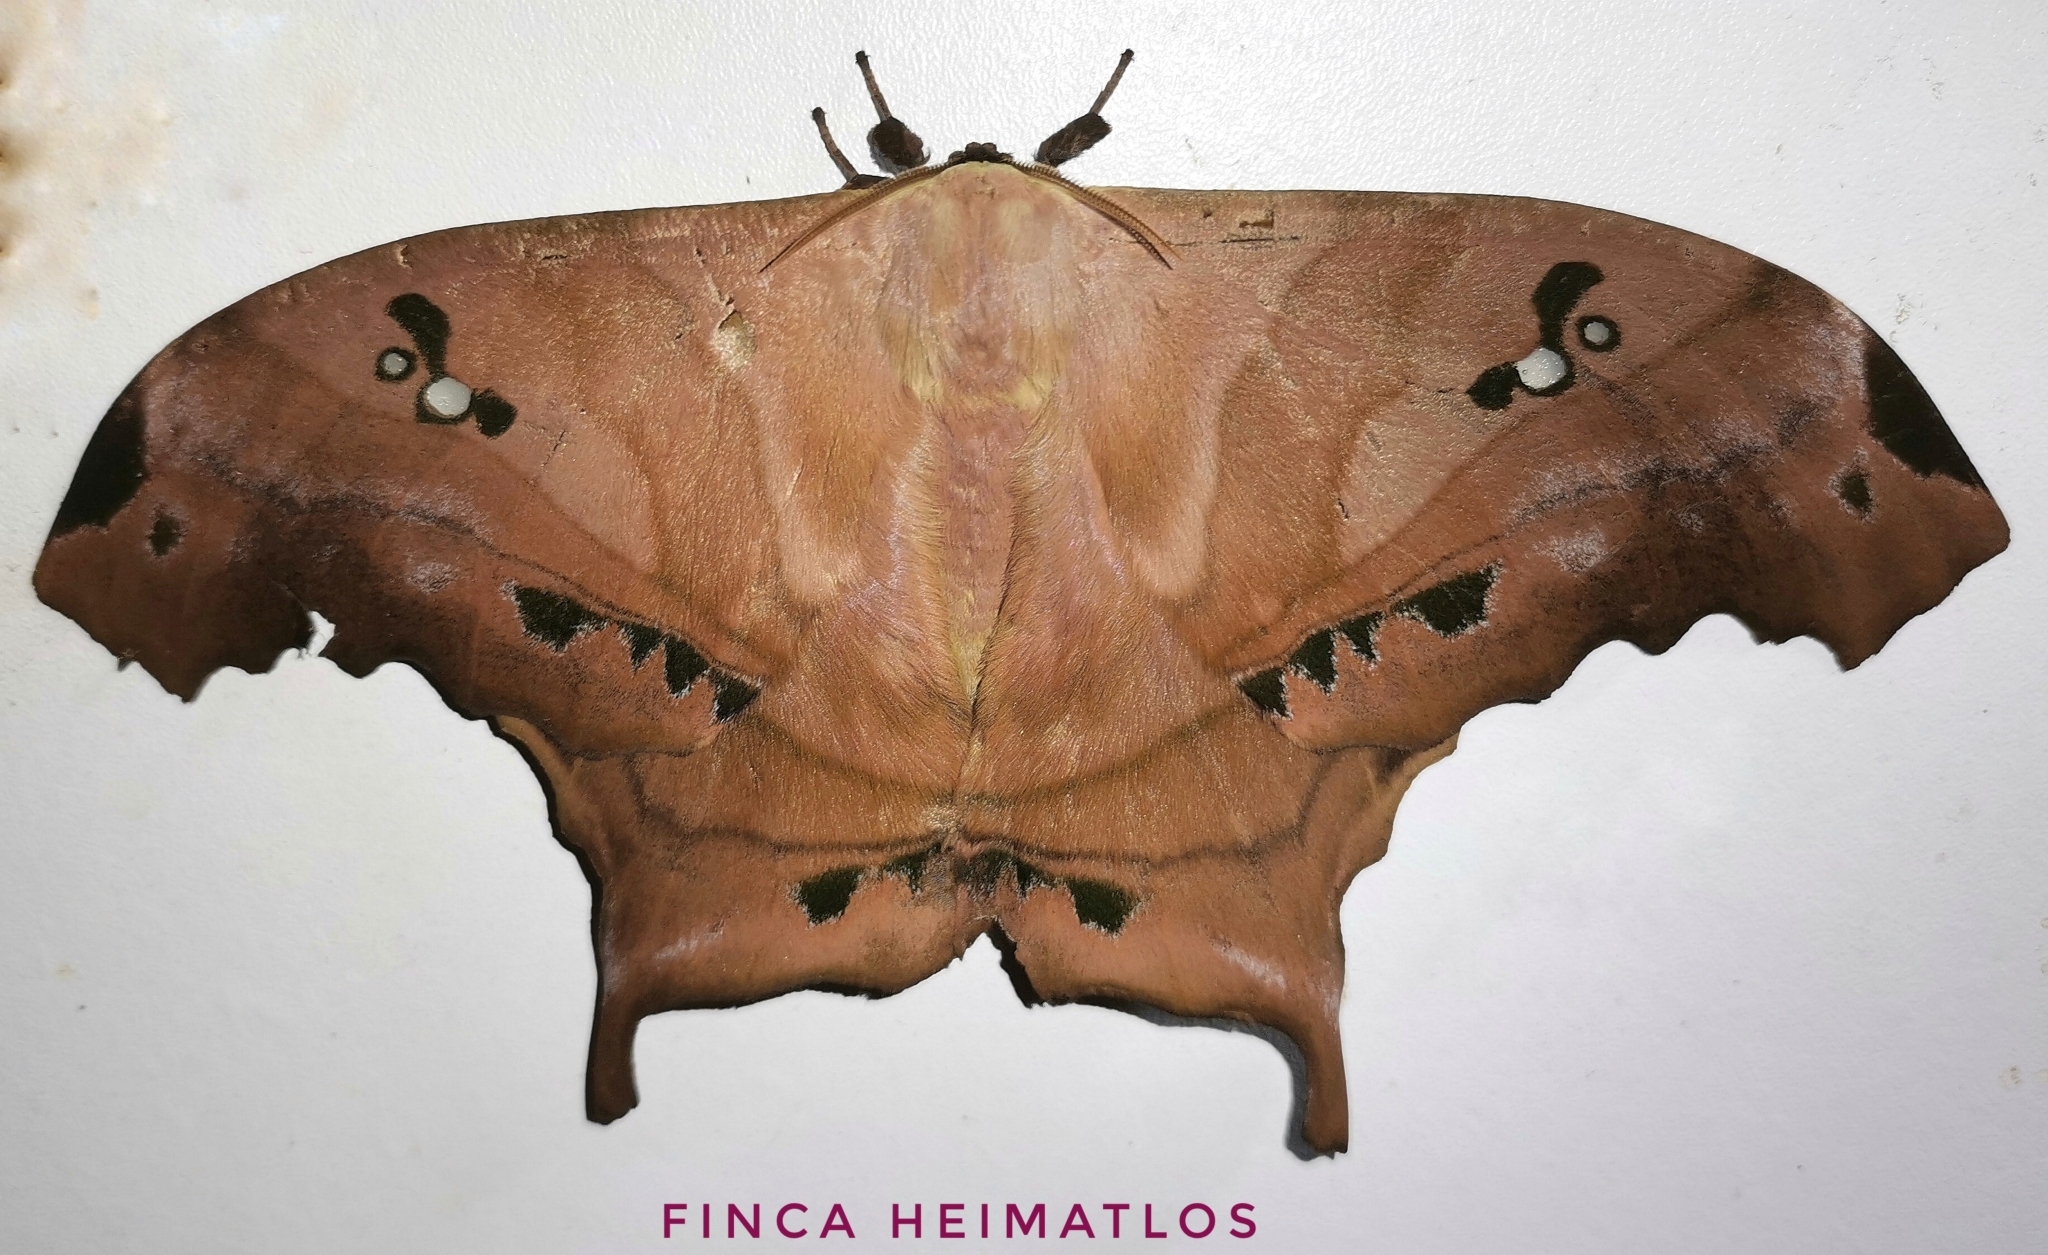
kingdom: Animalia
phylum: Arthropoda
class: Insecta
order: Lepidoptera
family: Saturniidae
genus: Titaea
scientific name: Titaea tamerlan
